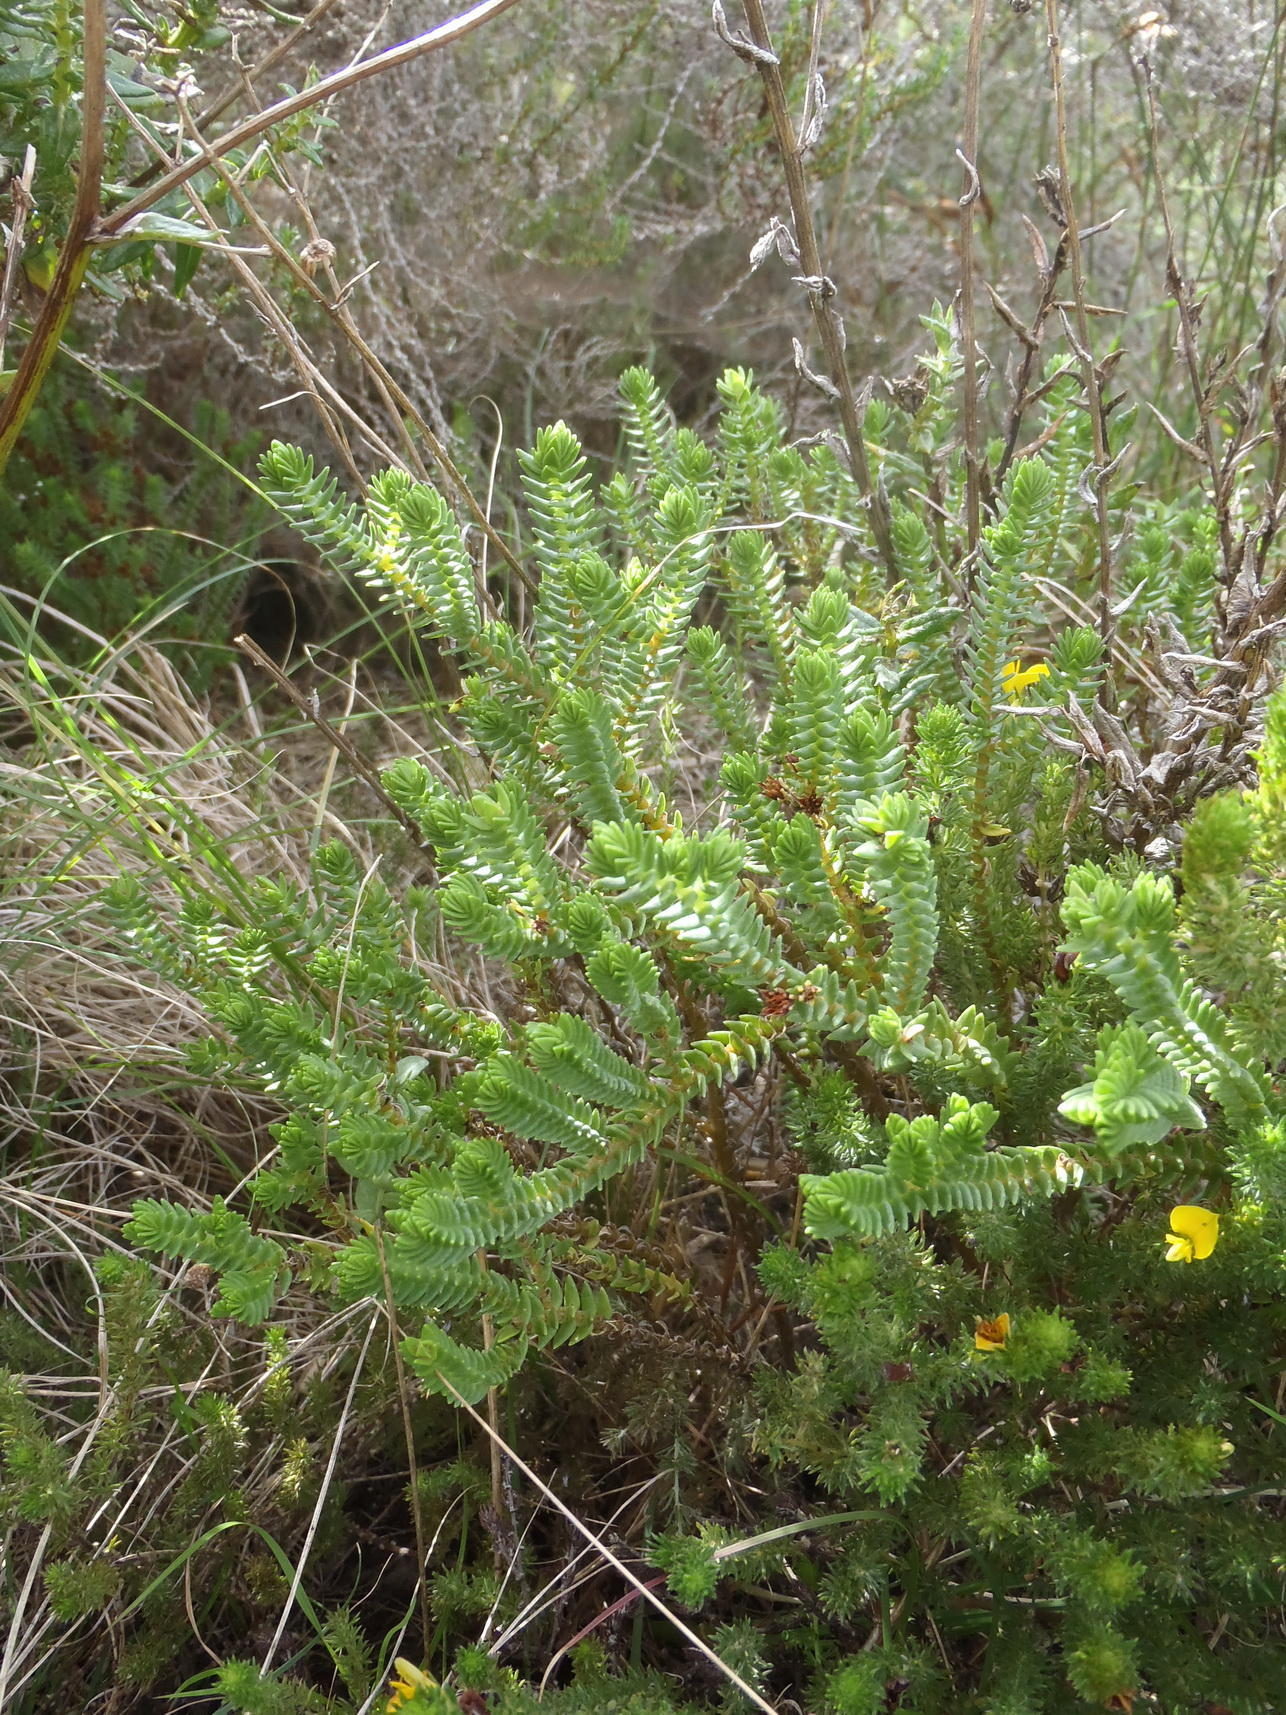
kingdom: Plantae
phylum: Tracheophyta
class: Magnoliopsida
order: Saxifragales
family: Crassulaceae
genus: Crassula
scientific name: Crassula ericoides
